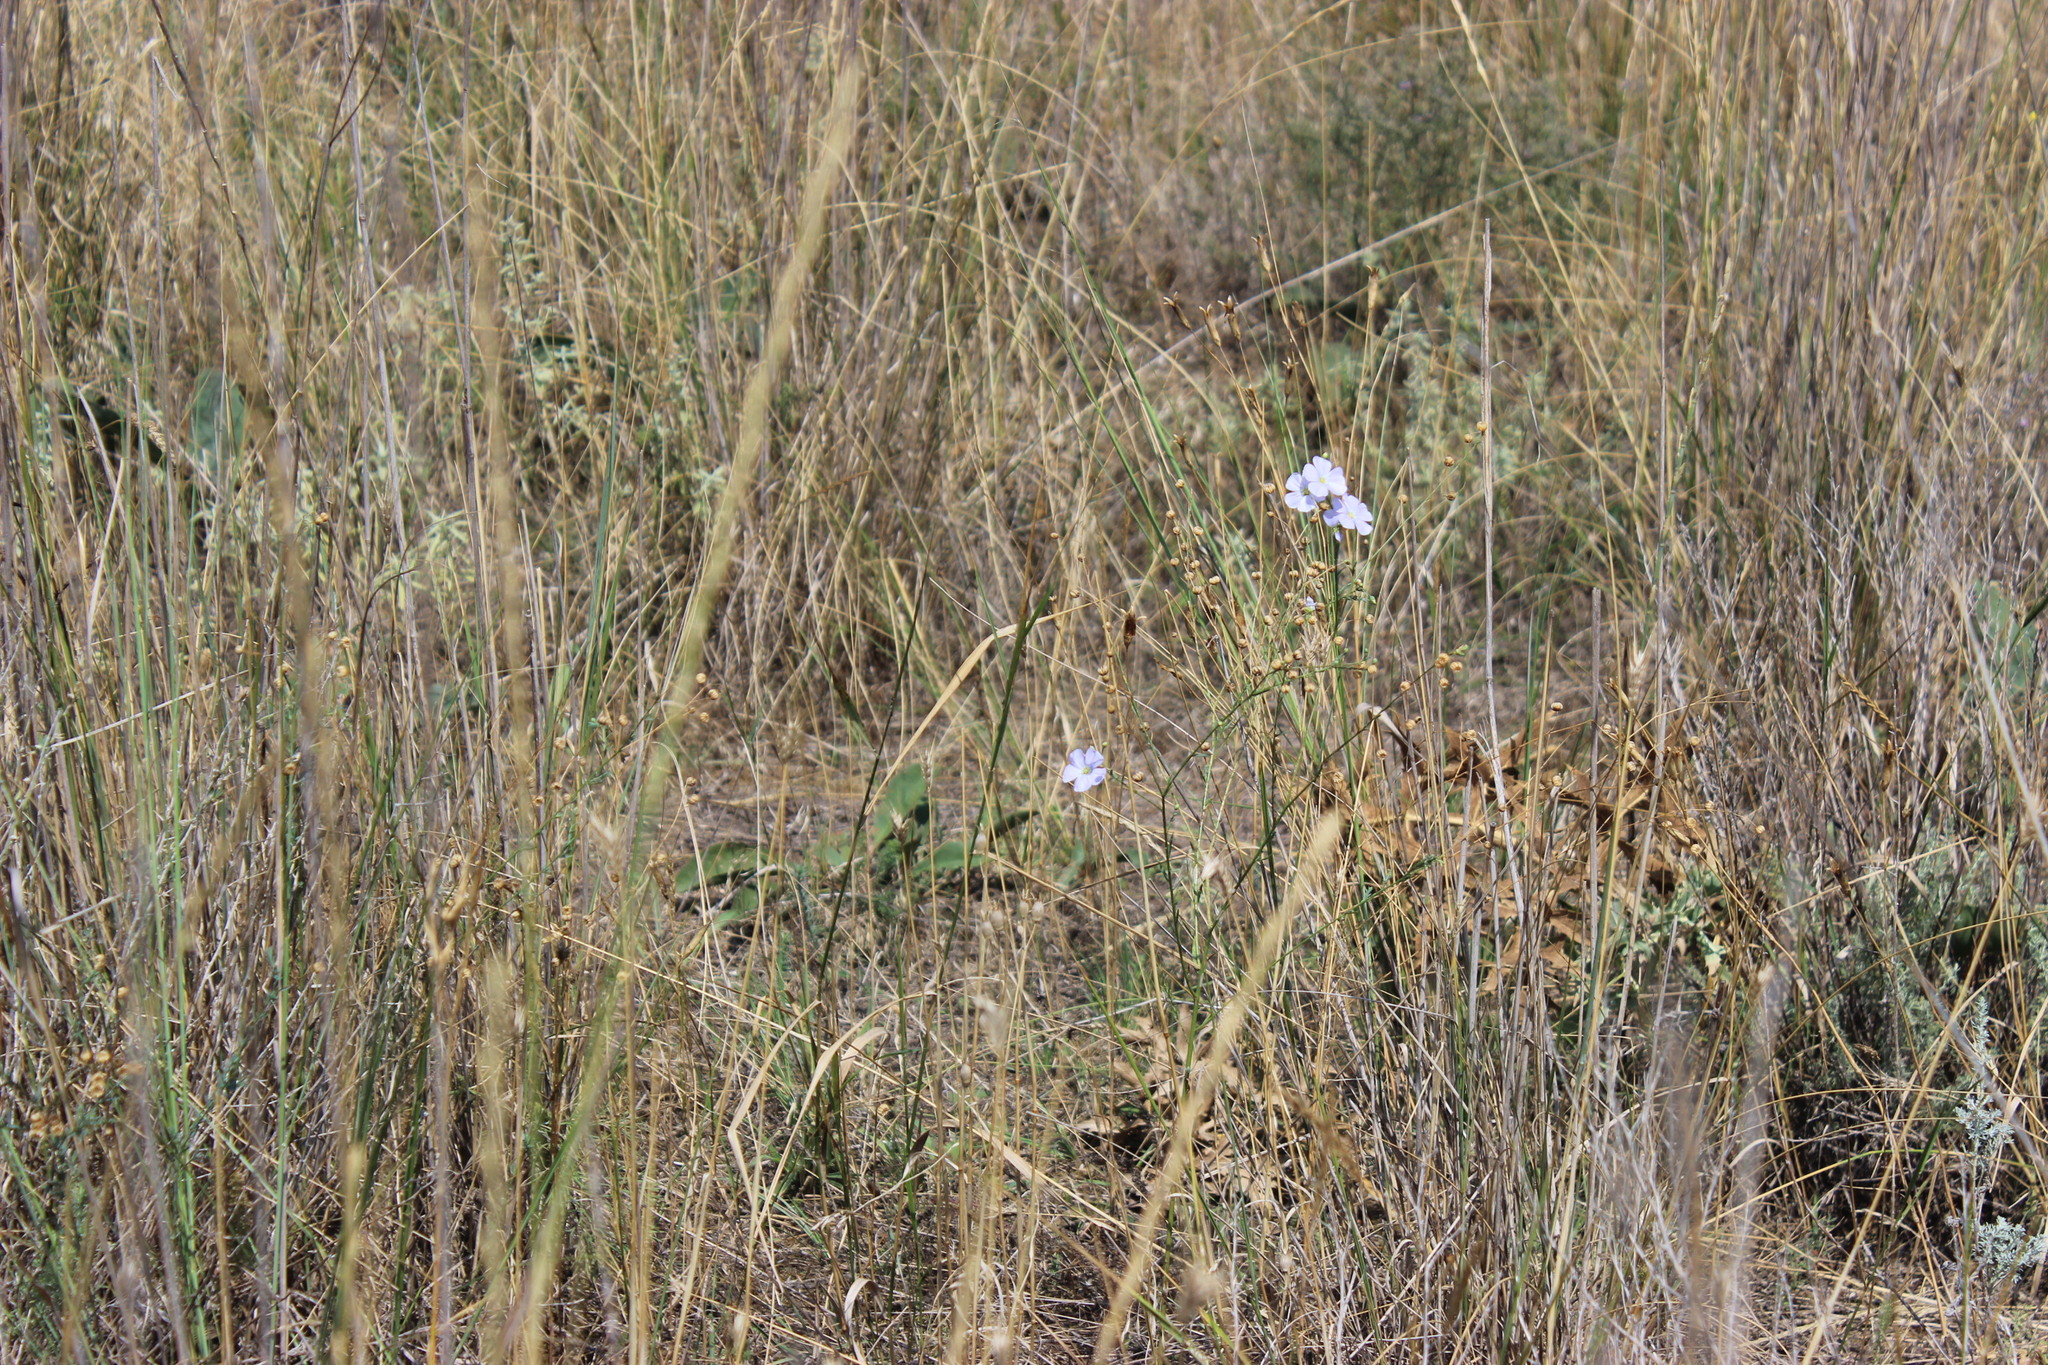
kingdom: Plantae
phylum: Tracheophyta
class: Magnoliopsida
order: Malpighiales
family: Linaceae
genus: Linum
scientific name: Linum austriacum
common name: Austrian flax
